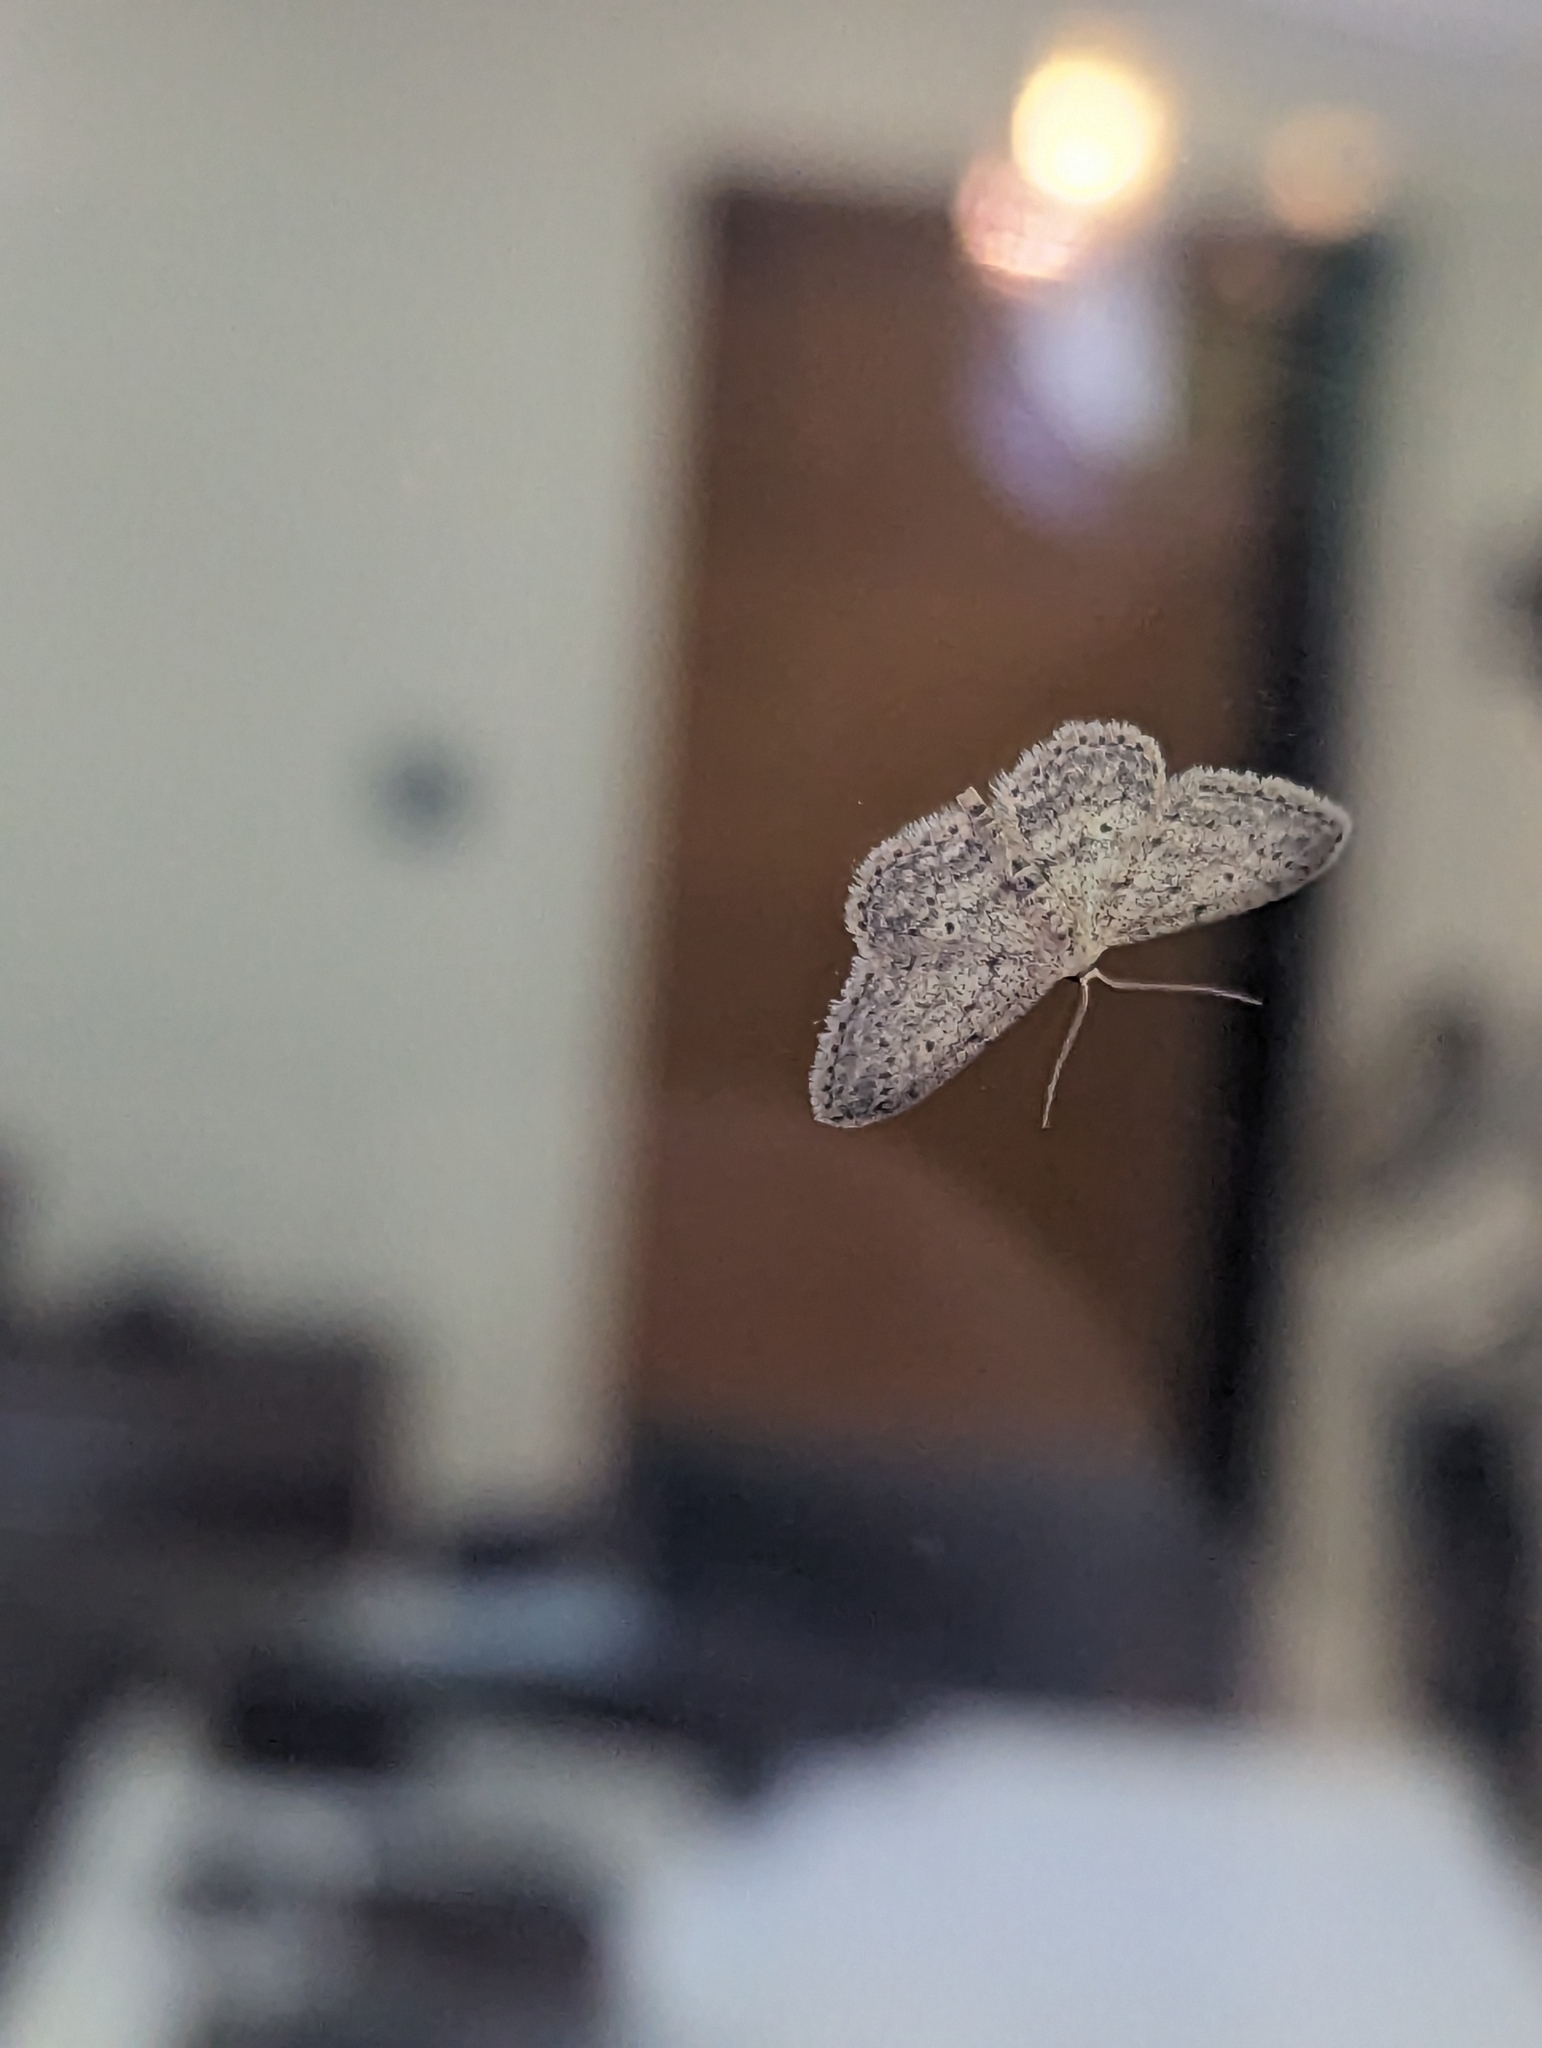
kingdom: Animalia
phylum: Arthropoda
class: Insecta
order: Lepidoptera
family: Geometridae
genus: Idaea
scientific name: Idaea seriata
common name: Small dusty wave
